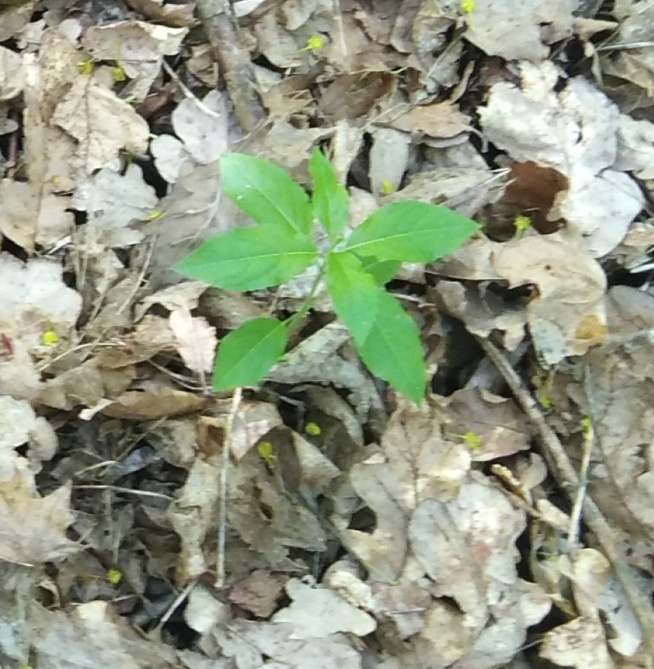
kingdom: Plantae
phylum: Tracheophyta
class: Magnoliopsida
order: Malpighiales
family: Euphorbiaceae
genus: Mercurialis
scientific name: Mercurialis perennis
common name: Dog mercury
